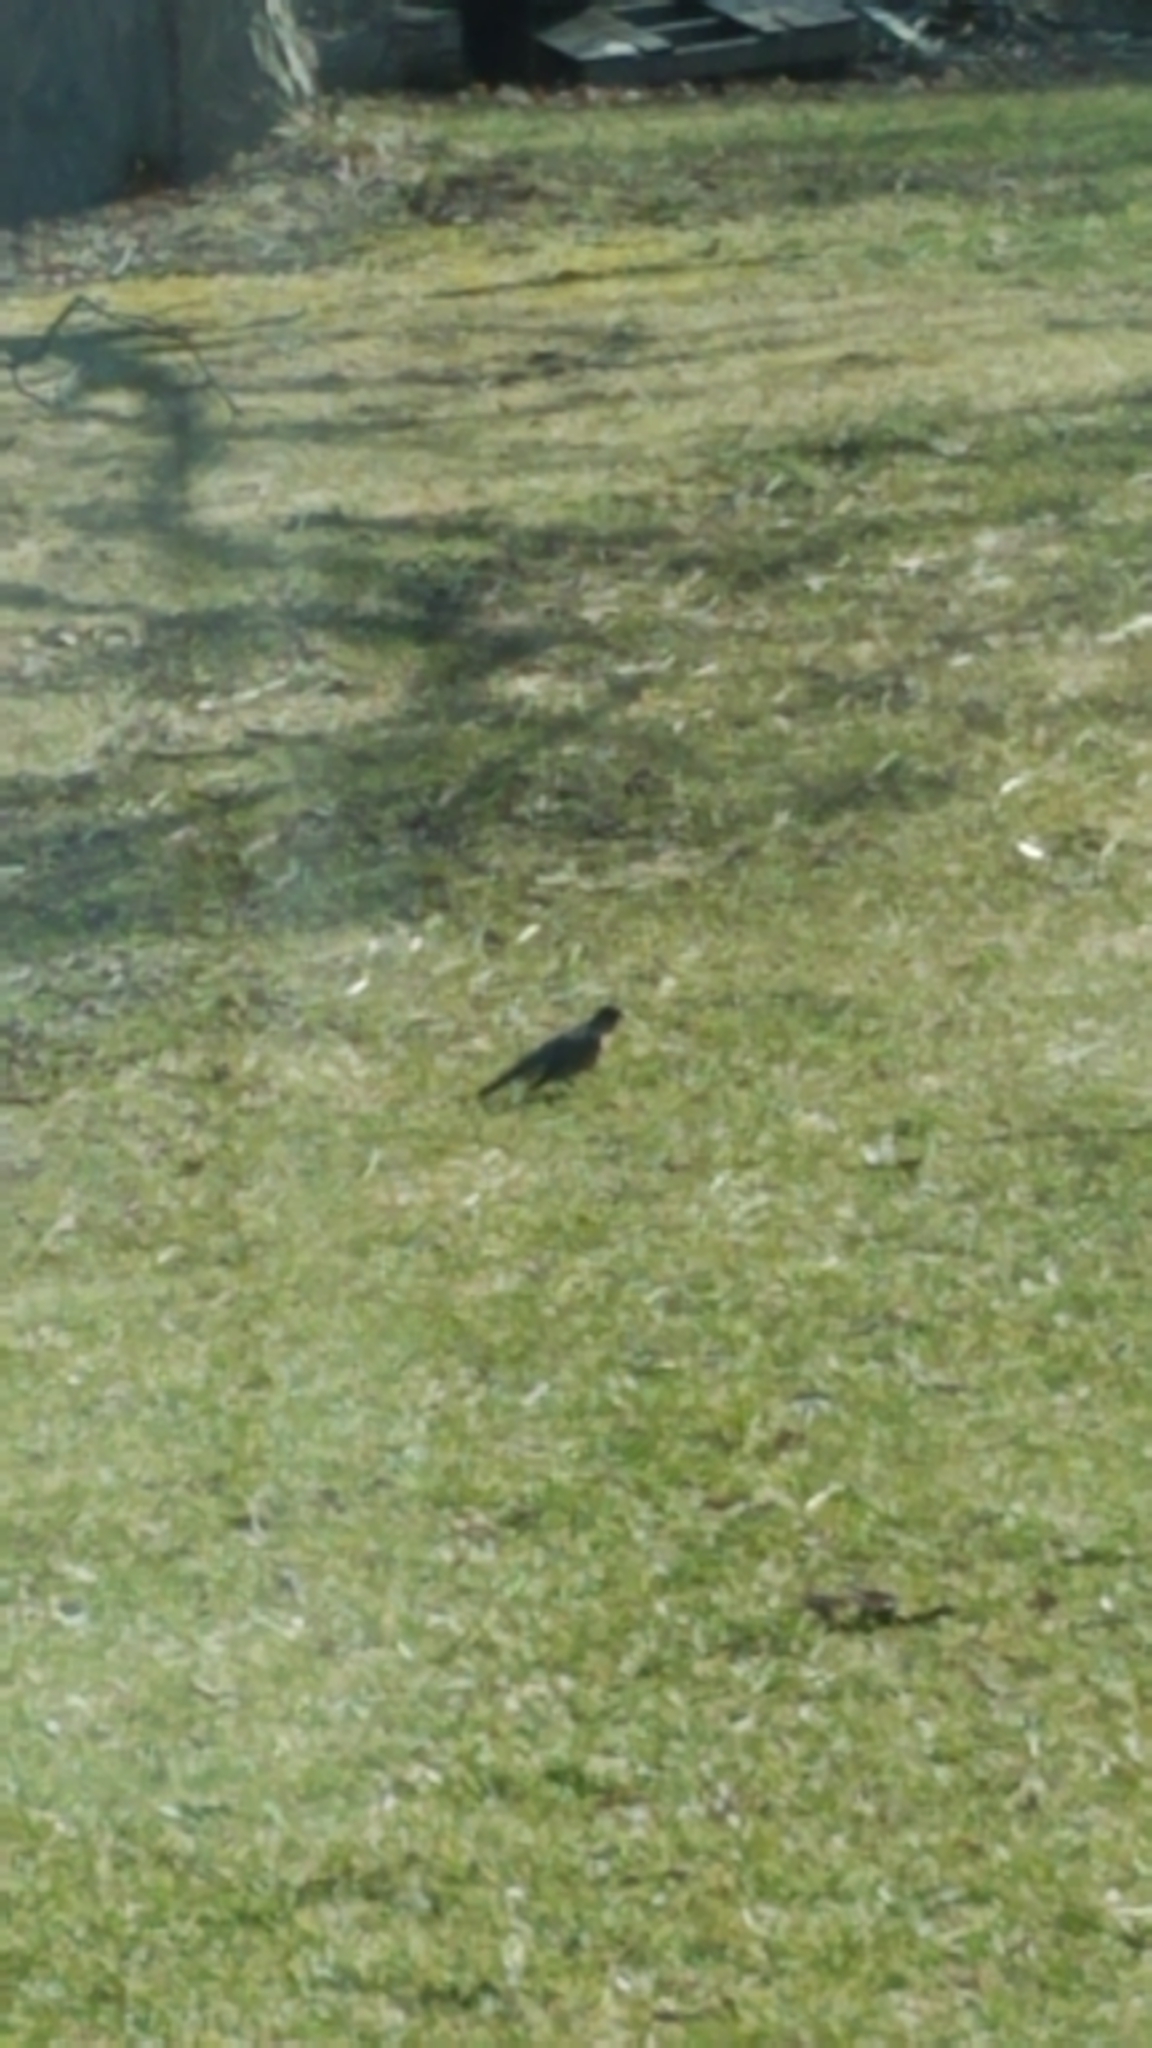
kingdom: Animalia
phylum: Chordata
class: Aves
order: Passeriformes
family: Turdidae
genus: Turdus
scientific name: Turdus migratorius
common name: American robin
